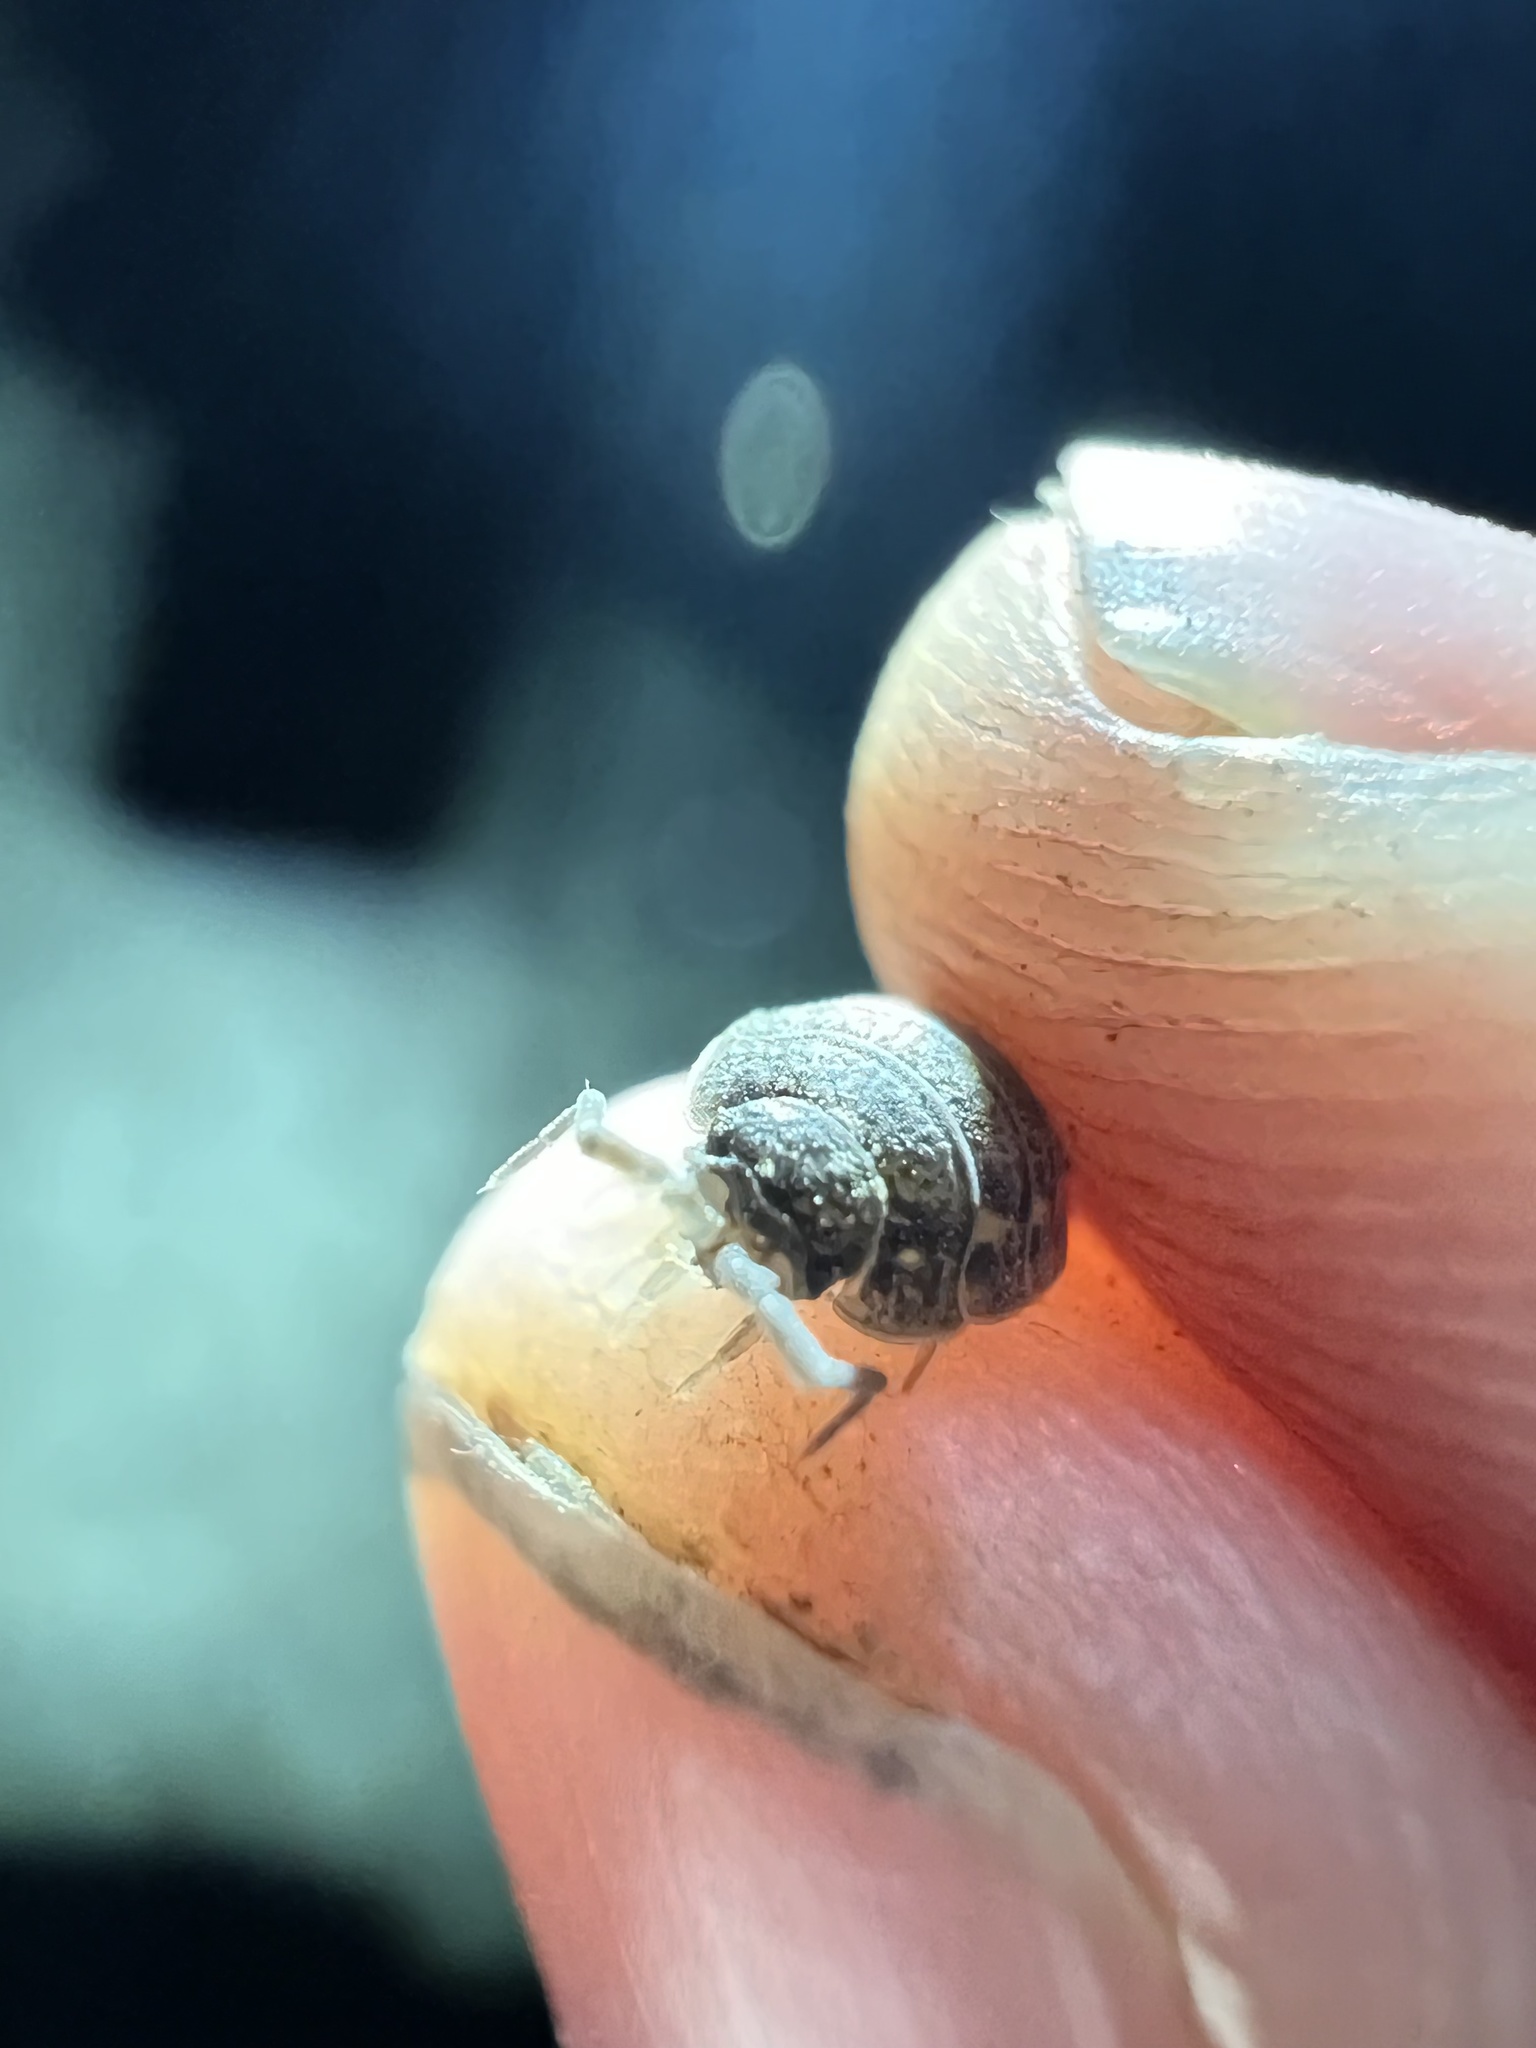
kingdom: Animalia
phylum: Arthropoda
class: Malacostraca
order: Isopoda
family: Trachelipodidae
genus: Trachelipus
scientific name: Trachelipus rathkii
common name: Isopod
